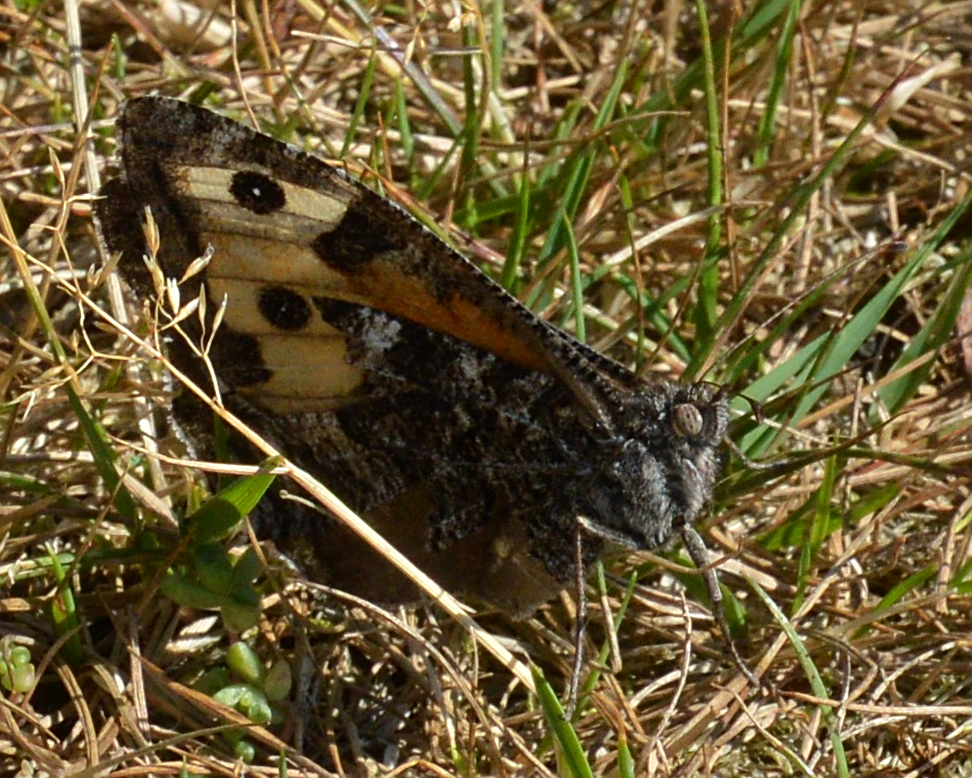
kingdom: Animalia
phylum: Arthropoda
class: Insecta
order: Lepidoptera
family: Nymphalidae
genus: Hipparchia
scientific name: Hipparchia semele
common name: Grayling
